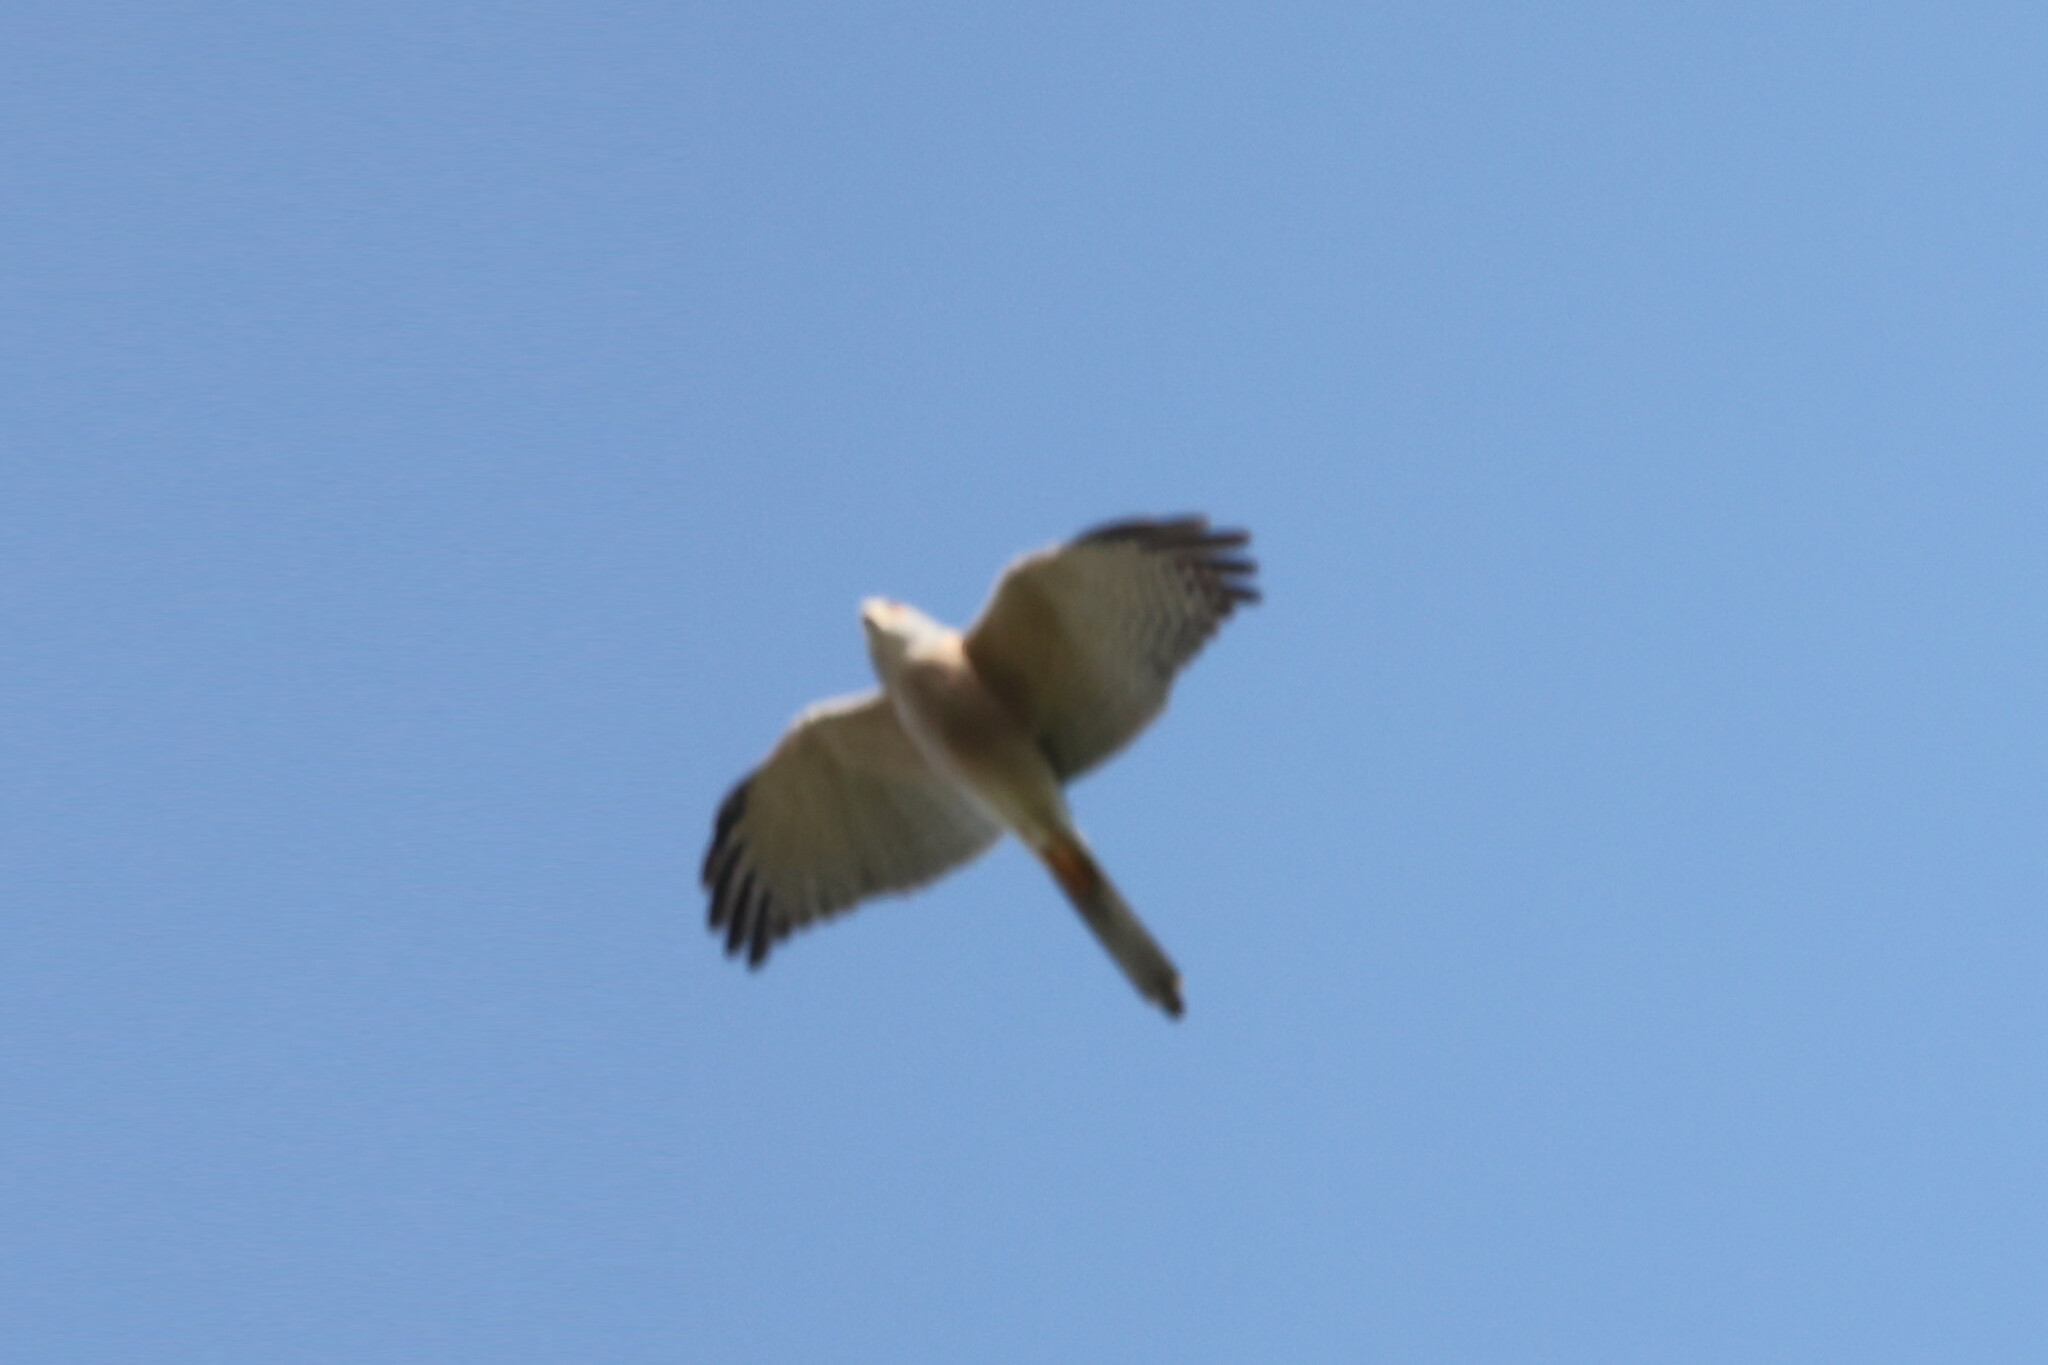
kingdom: Animalia
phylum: Chordata
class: Aves
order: Accipitriformes
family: Accipitridae
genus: Accipiter
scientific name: Accipiter badius
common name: Shikra
